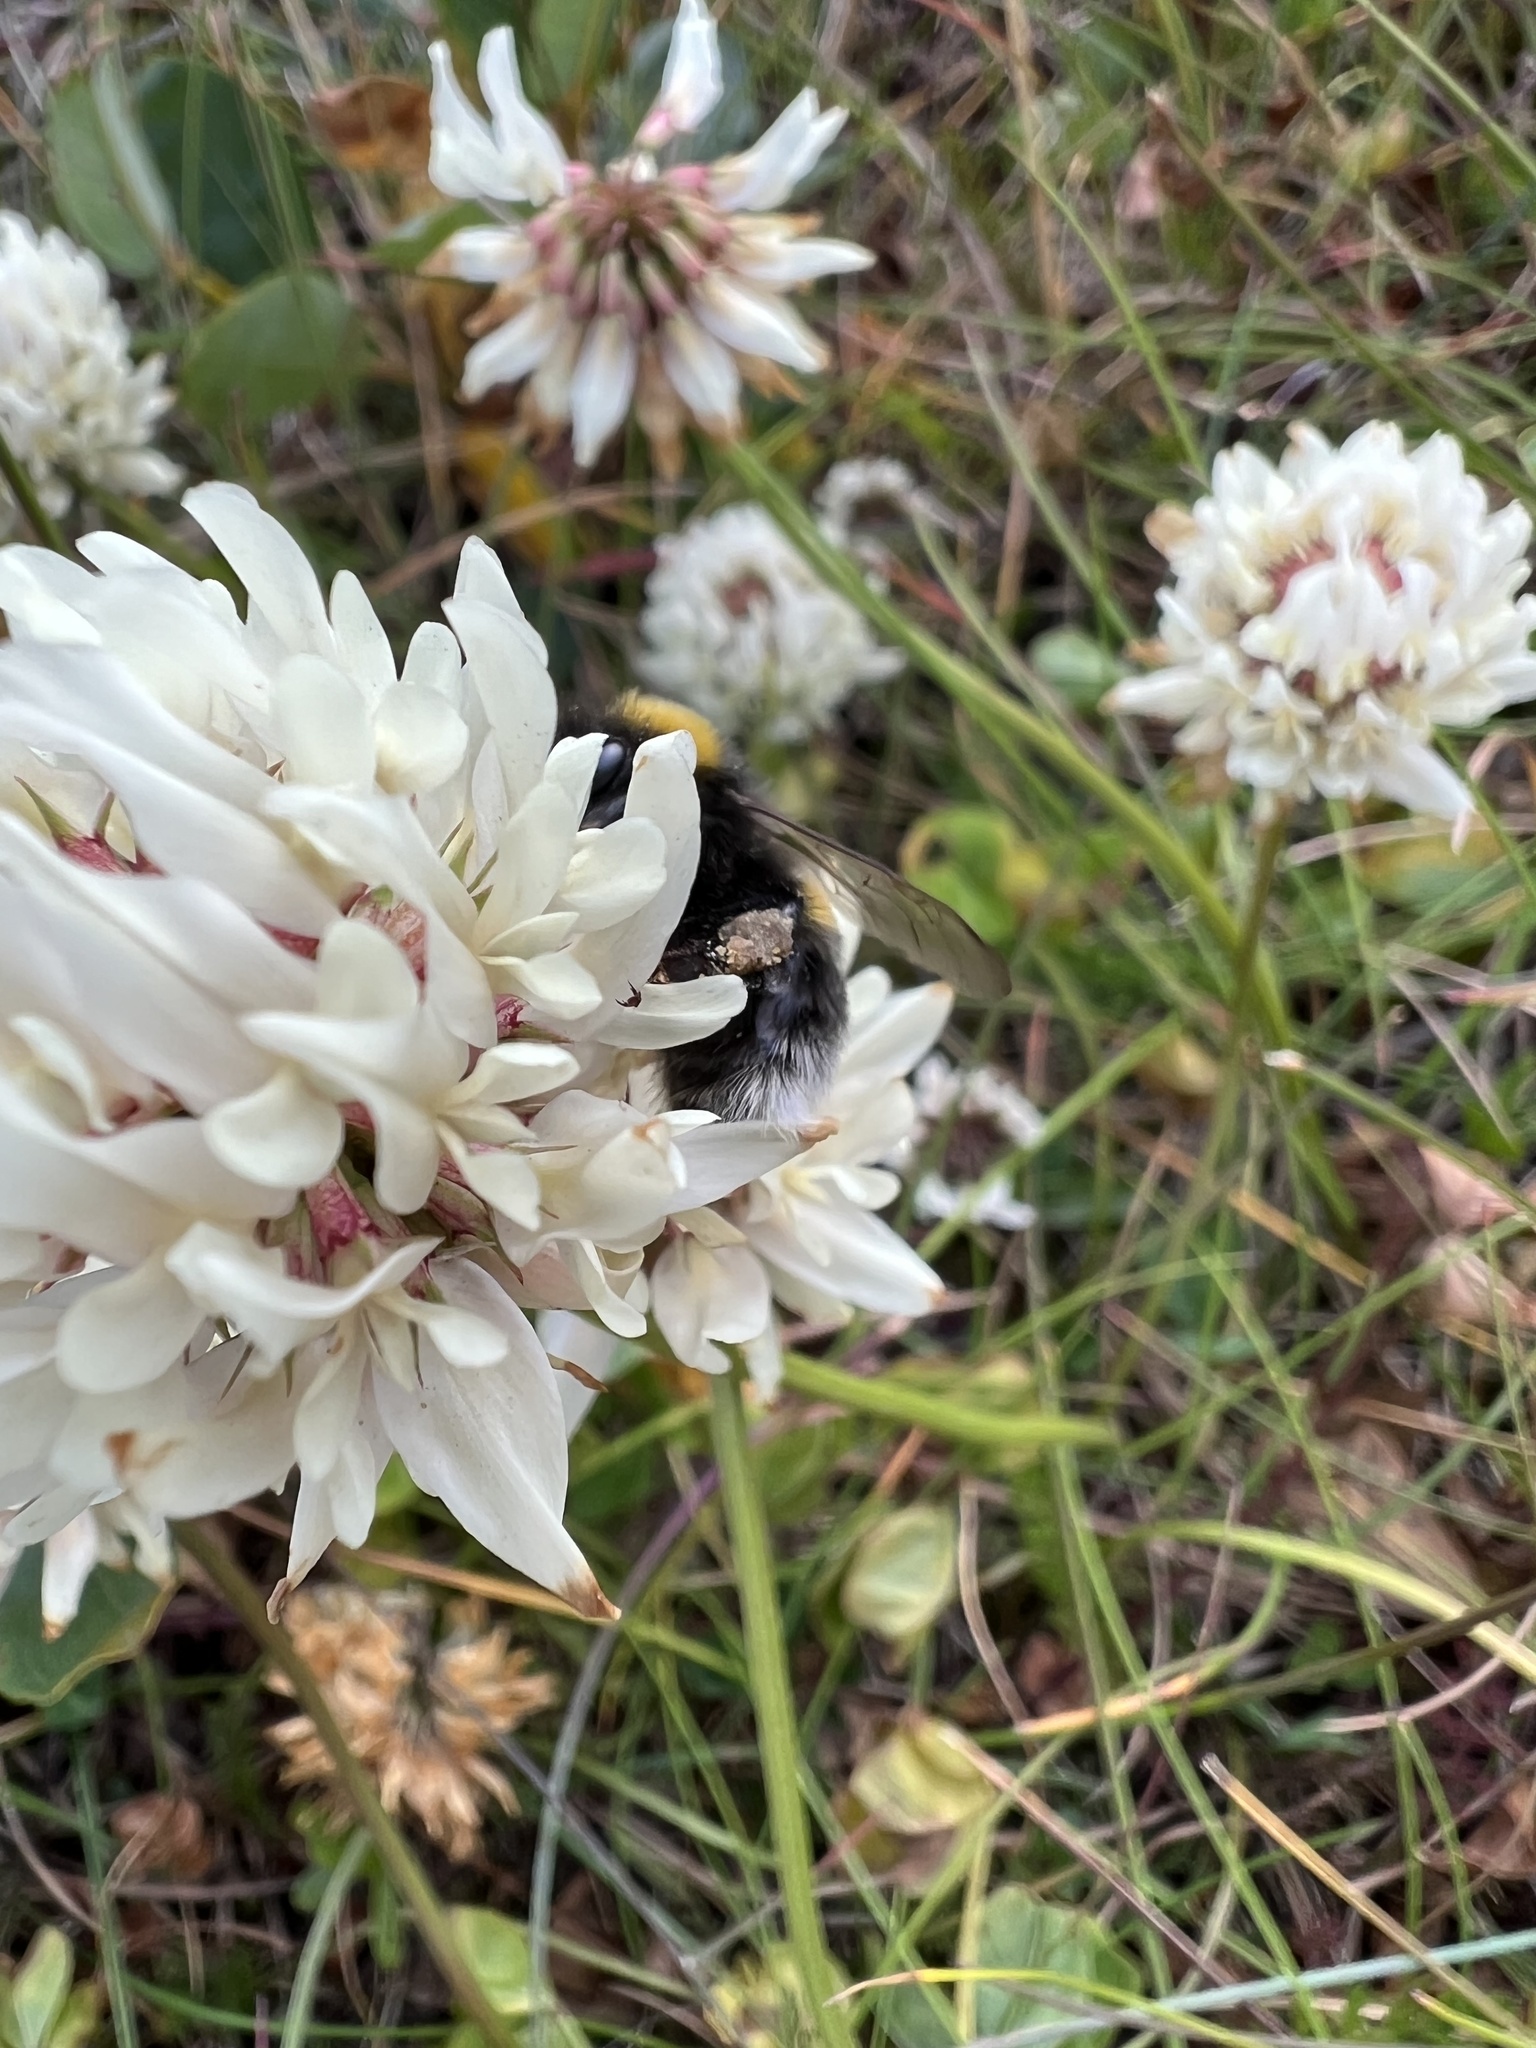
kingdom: Animalia
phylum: Arthropoda
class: Insecta
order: Hymenoptera
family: Apidae
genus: Bombus
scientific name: Bombus lucorum
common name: White-tailed bumblebee
